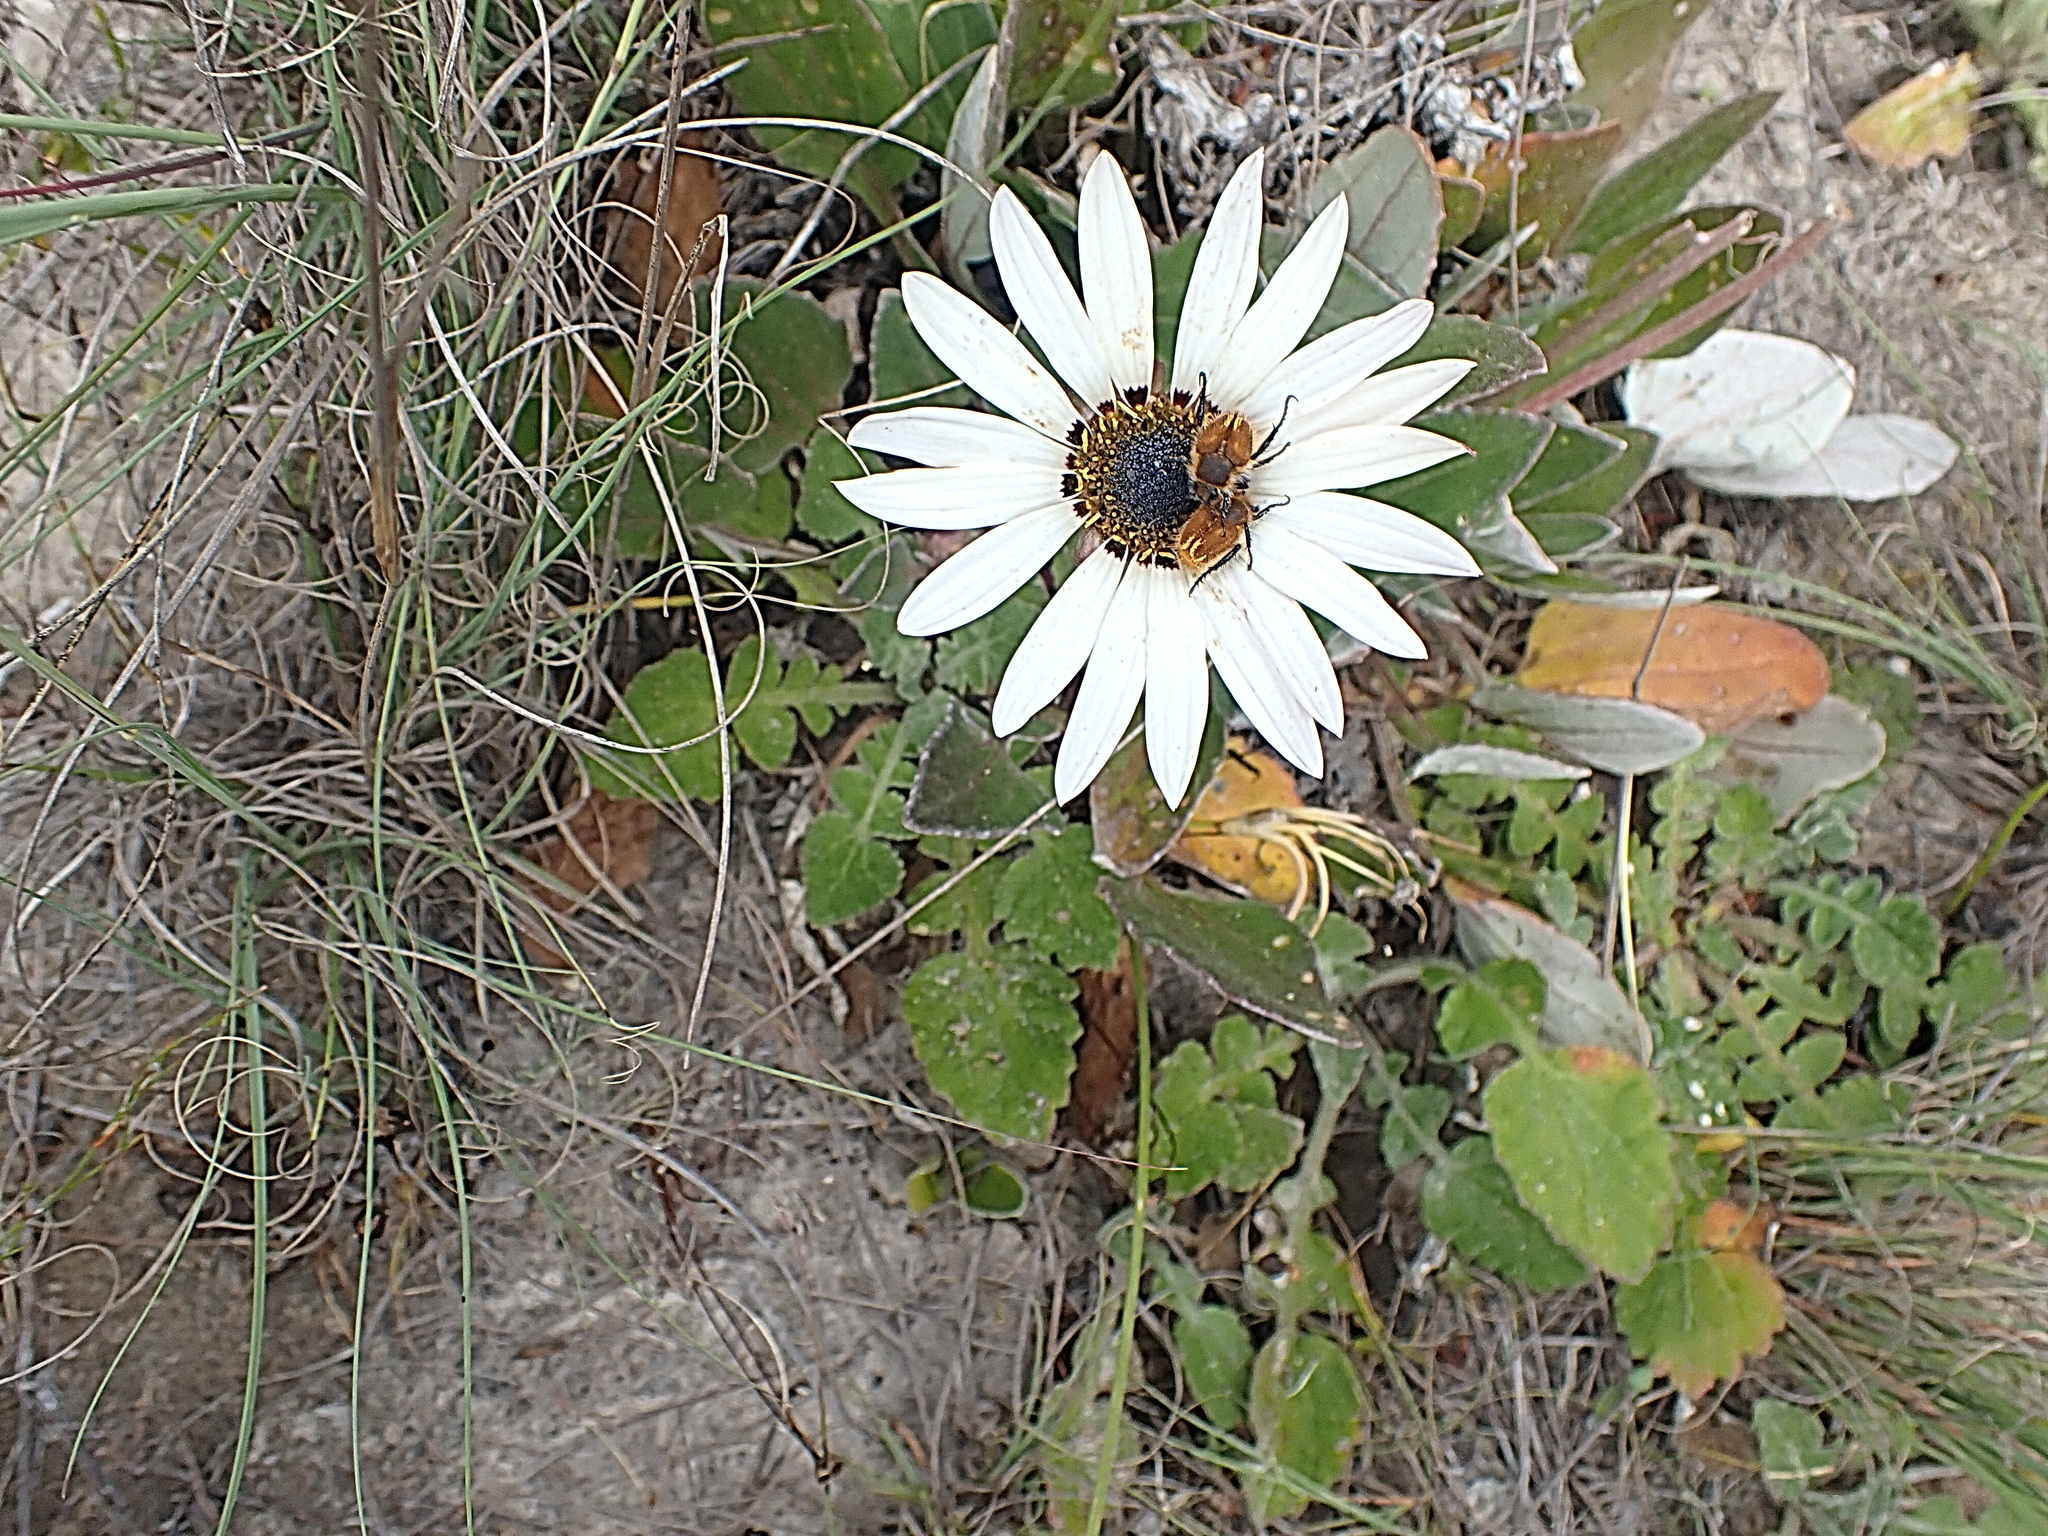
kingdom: Plantae
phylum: Tracheophyta
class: Magnoliopsida
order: Asterales
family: Asteraceae
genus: Arctotis
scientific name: Arctotis acaulis
